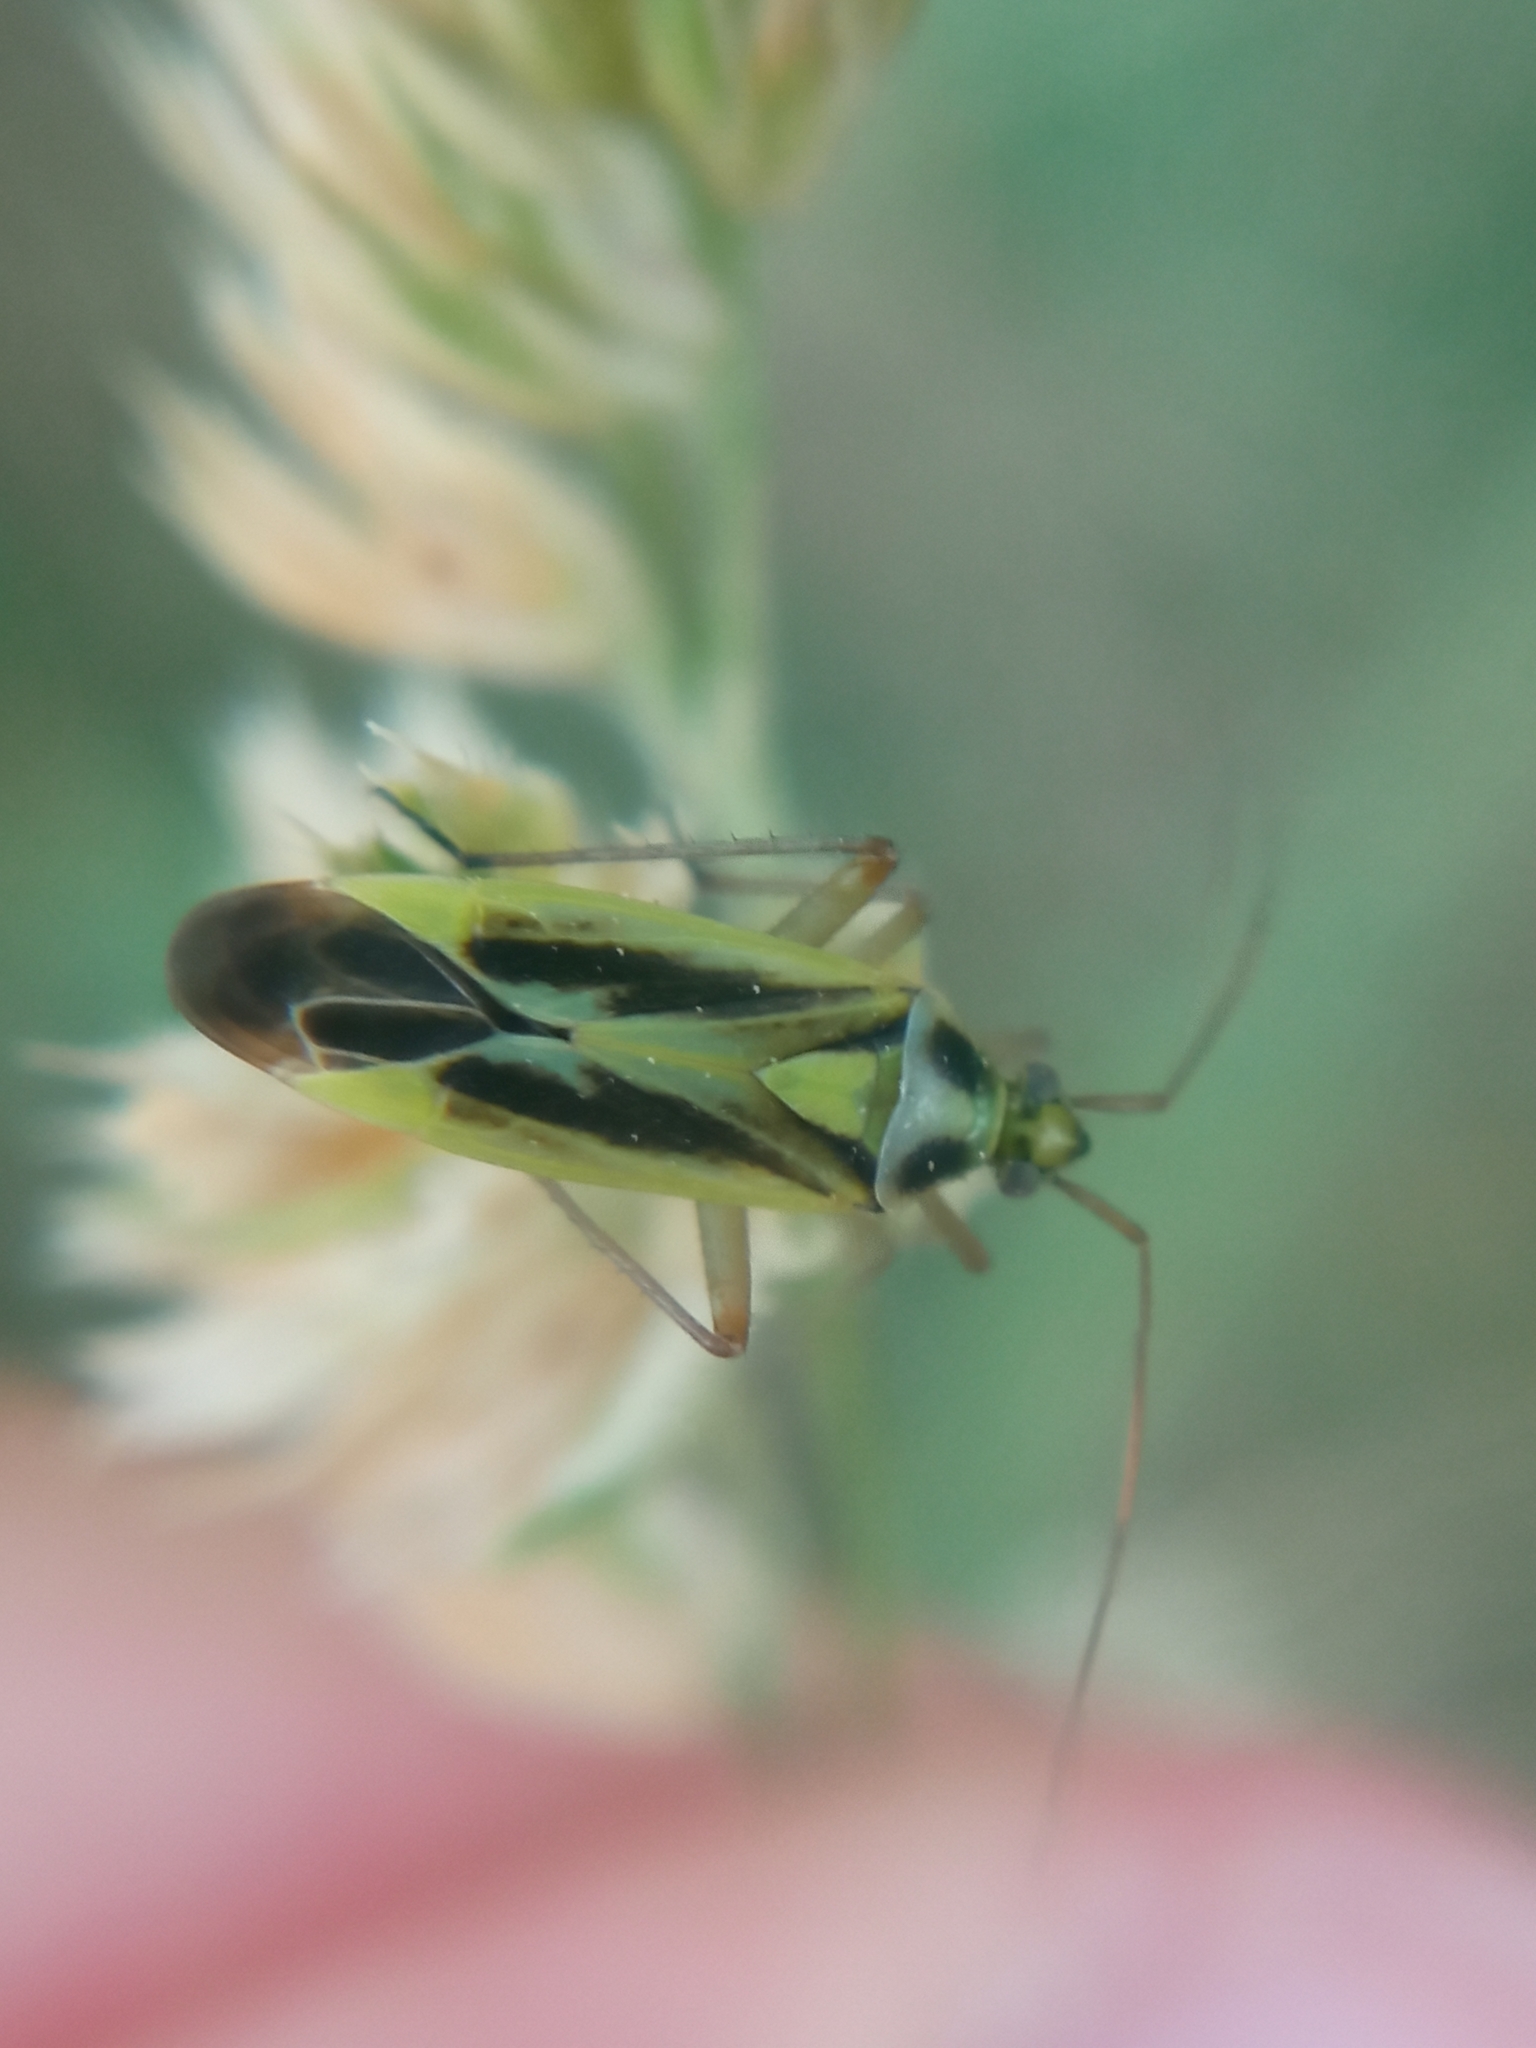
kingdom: Animalia
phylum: Arthropoda
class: Insecta
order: Hemiptera
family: Miridae
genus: Stenotus
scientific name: Stenotus binotatus
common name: Plant bug
